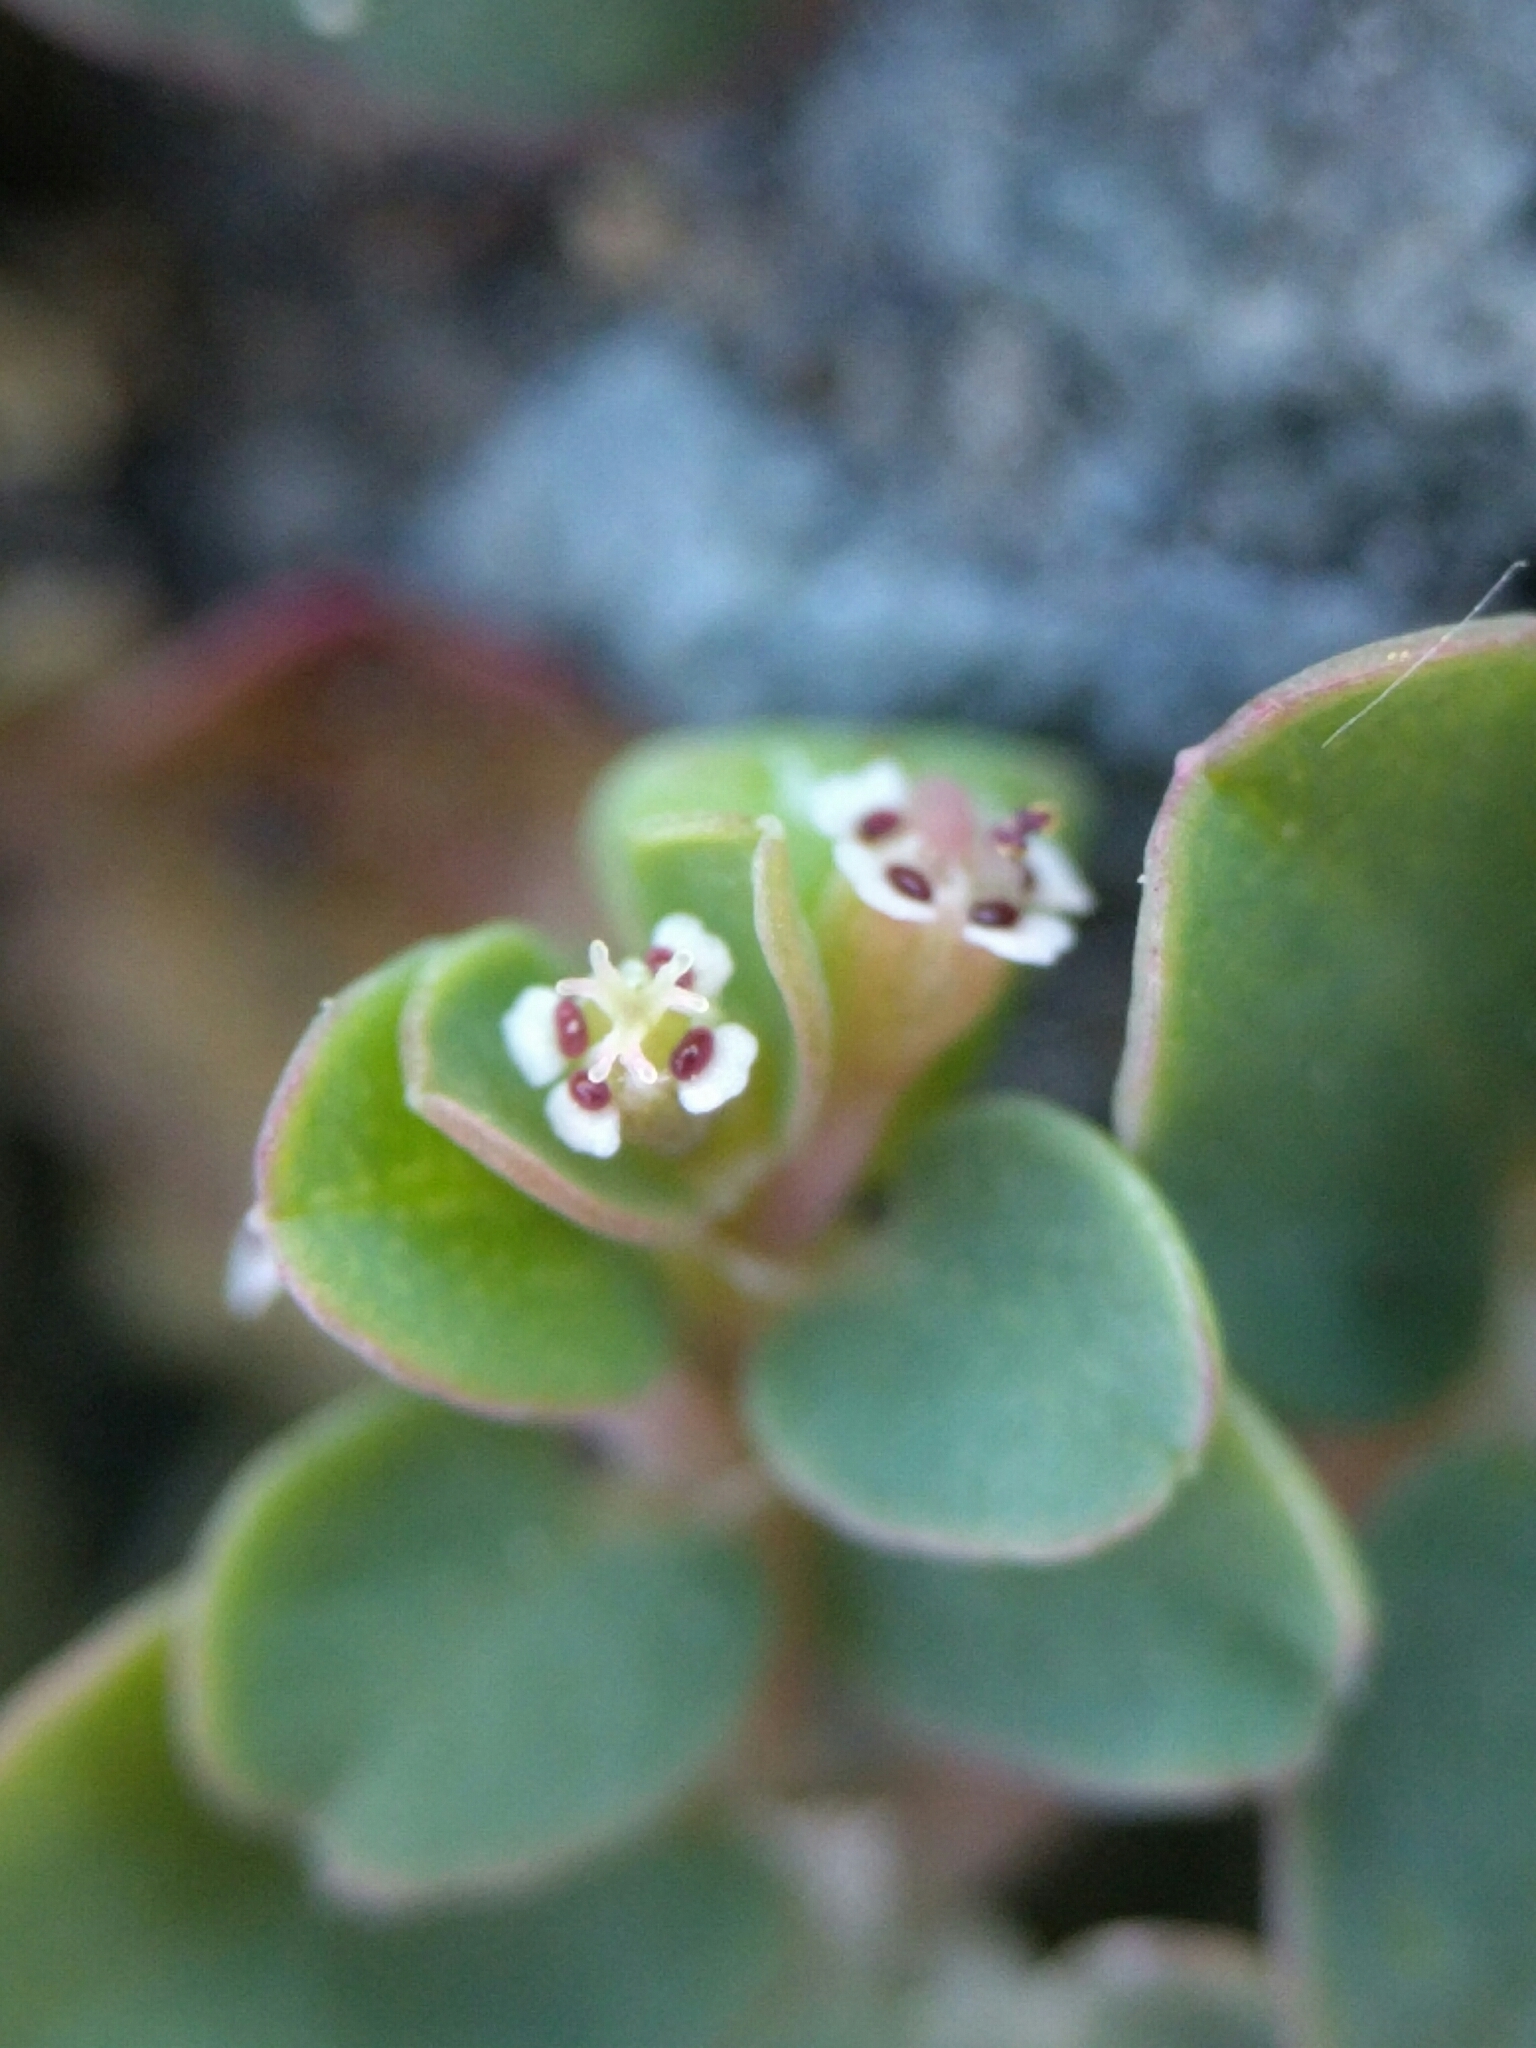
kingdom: Plantae
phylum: Tracheophyta
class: Magnoliopsida
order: Malpighiales
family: Euphorbiaceae
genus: Euphorbia
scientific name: Euphorbia serpens
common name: Matted sandmat
